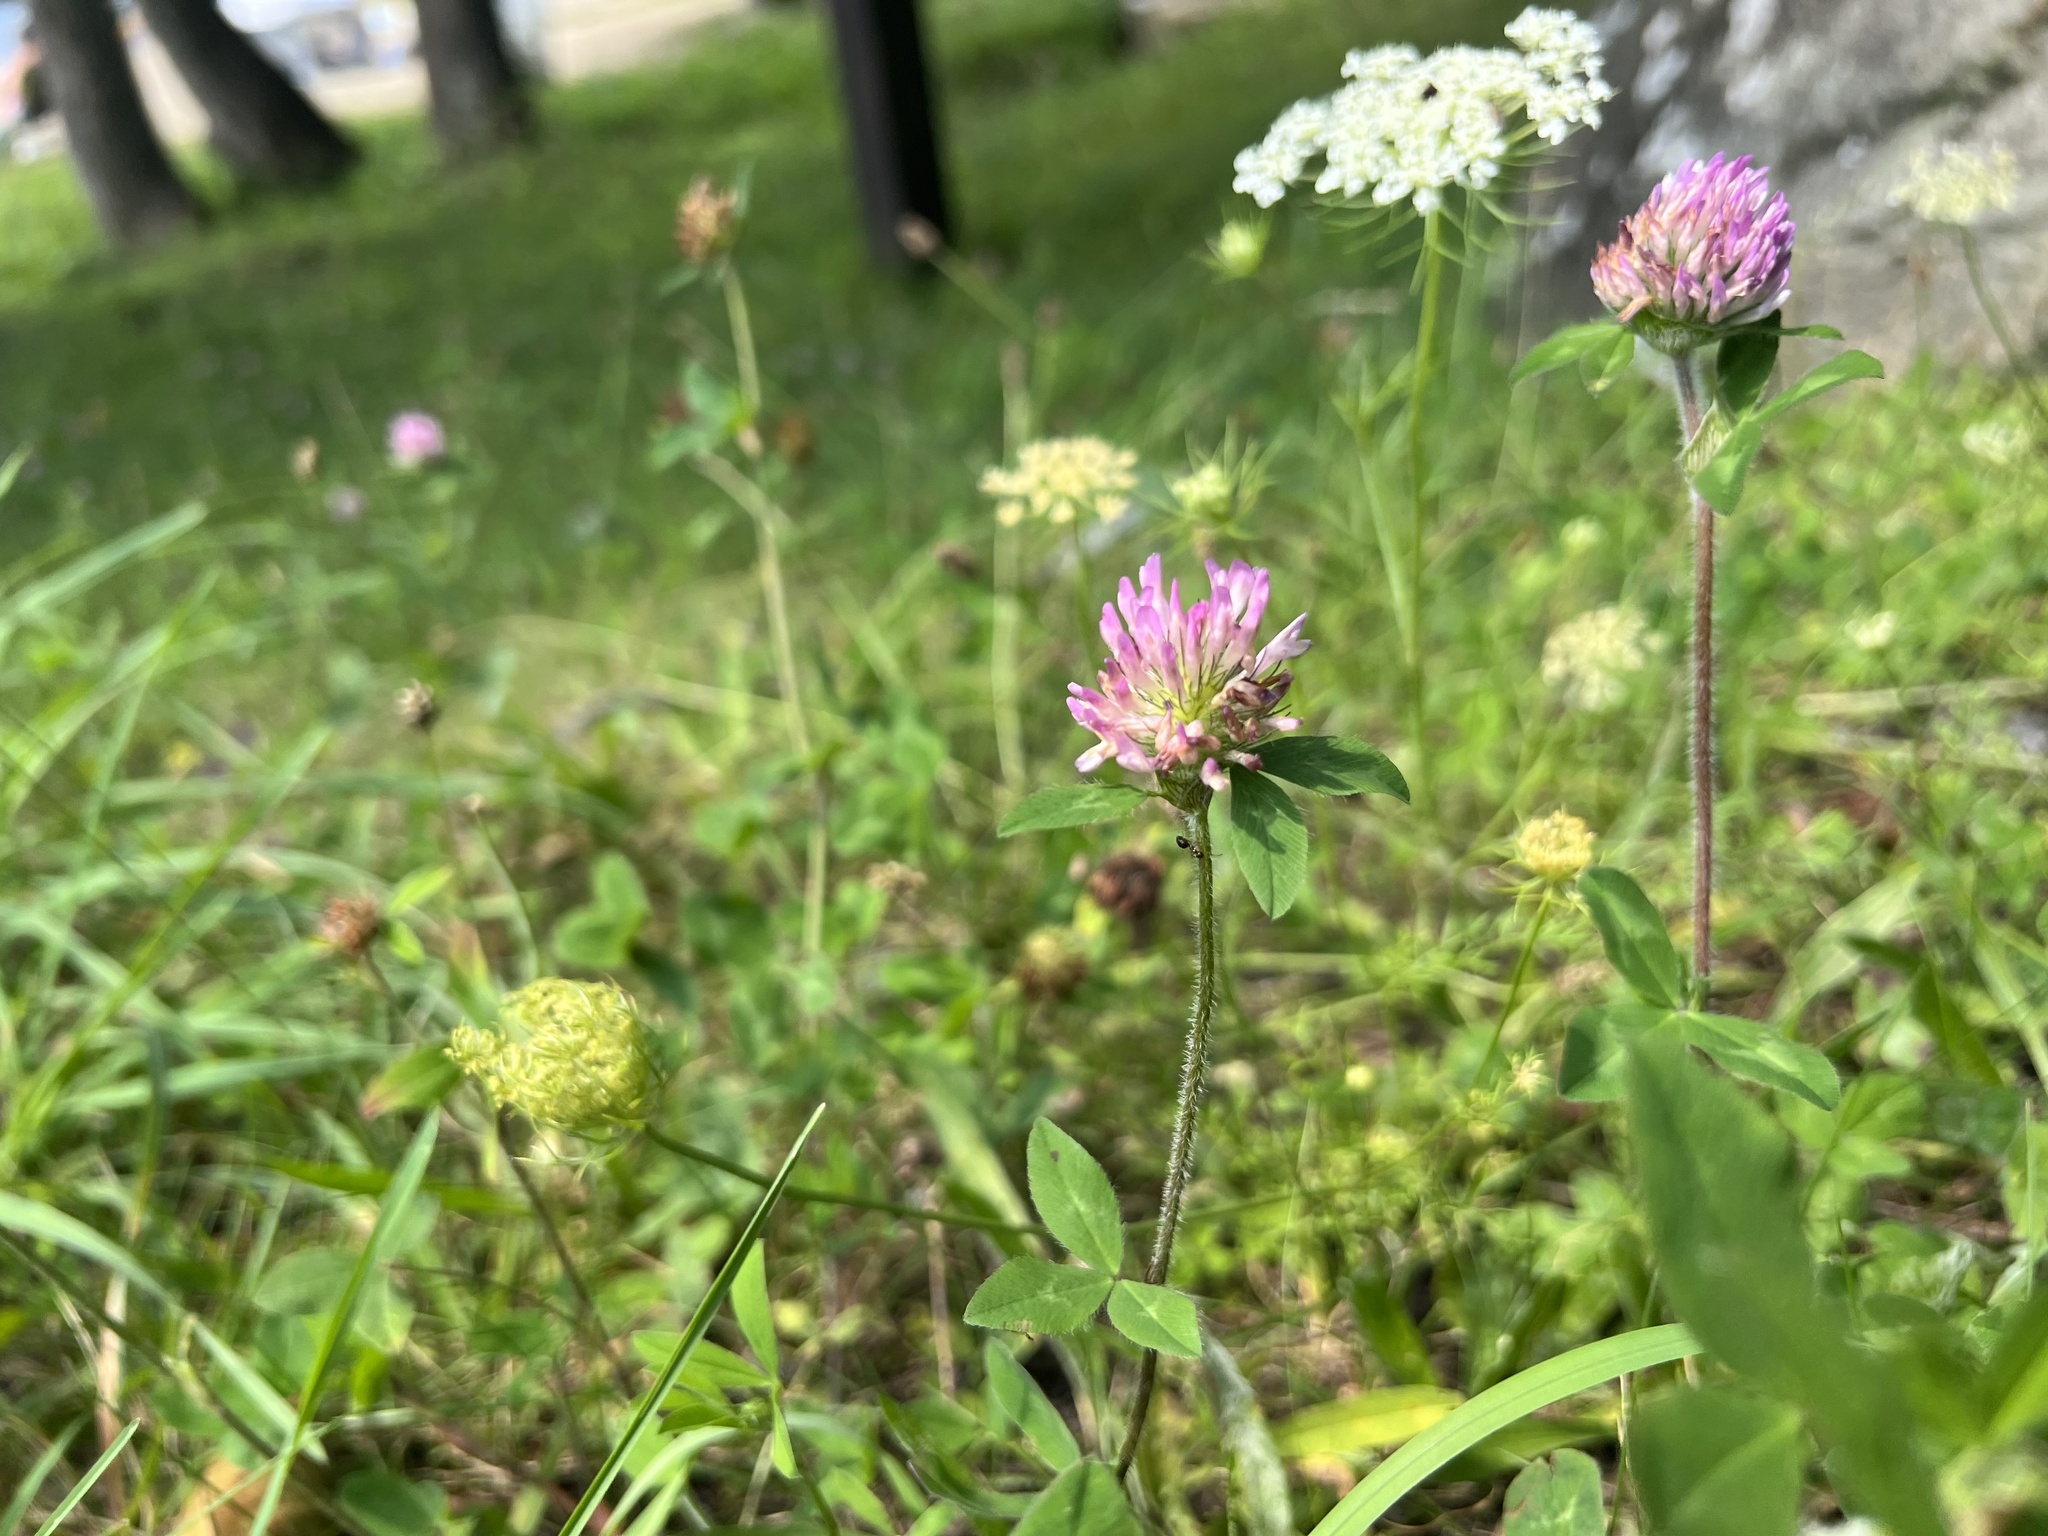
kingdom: Plantae
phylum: Tracheophyta
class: Magnoliopsida
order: Fabales
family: Fabaceae
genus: Trifolium
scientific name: Trifolium pratense
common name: Red clover
